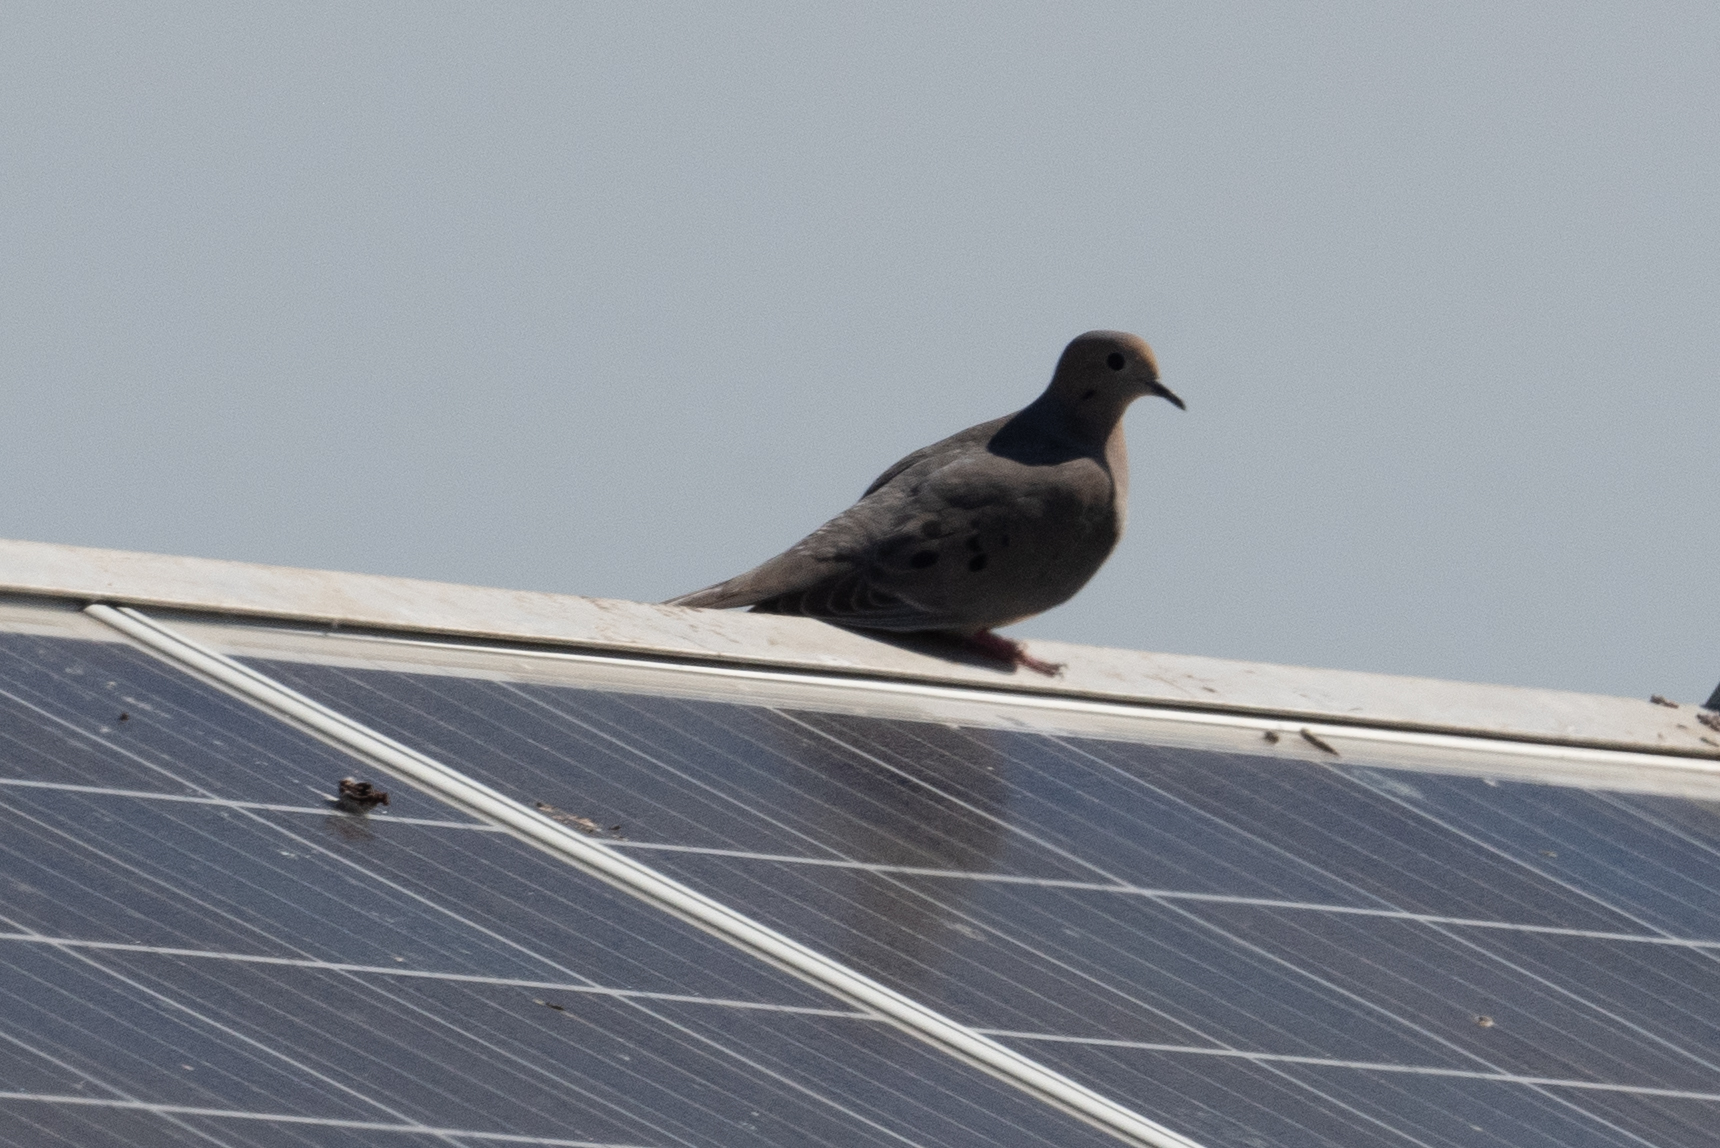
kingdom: Animalia
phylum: Chordata
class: Aves
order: Columbiformes
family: Columbidae
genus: Columba
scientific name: Columba livia
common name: Rock pigeon
